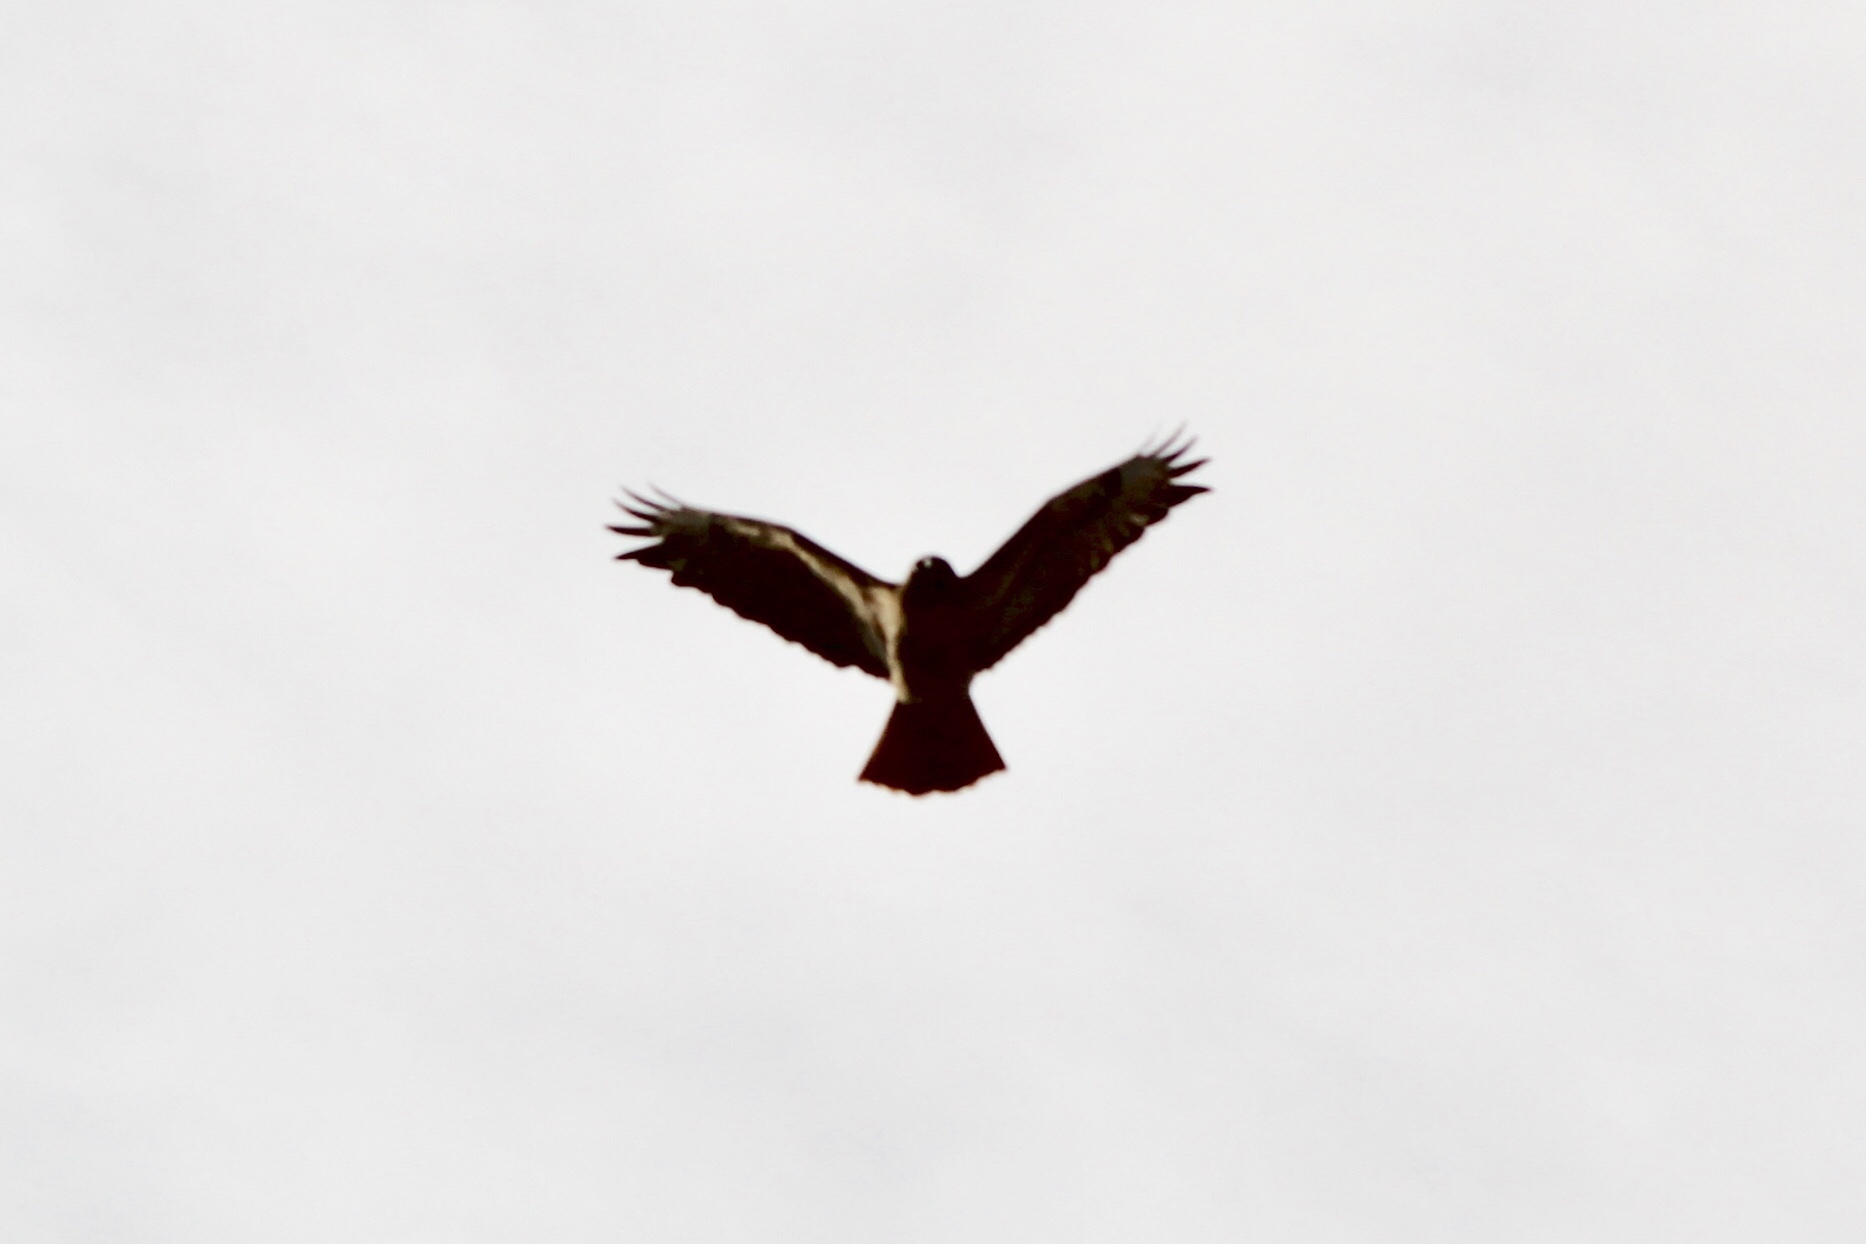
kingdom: Animalia
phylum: Chordata
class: Aves
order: Accipitriformes
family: Accipitridae
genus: Buteo
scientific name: Buteo jamaicensis
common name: Red-tailed hawk
